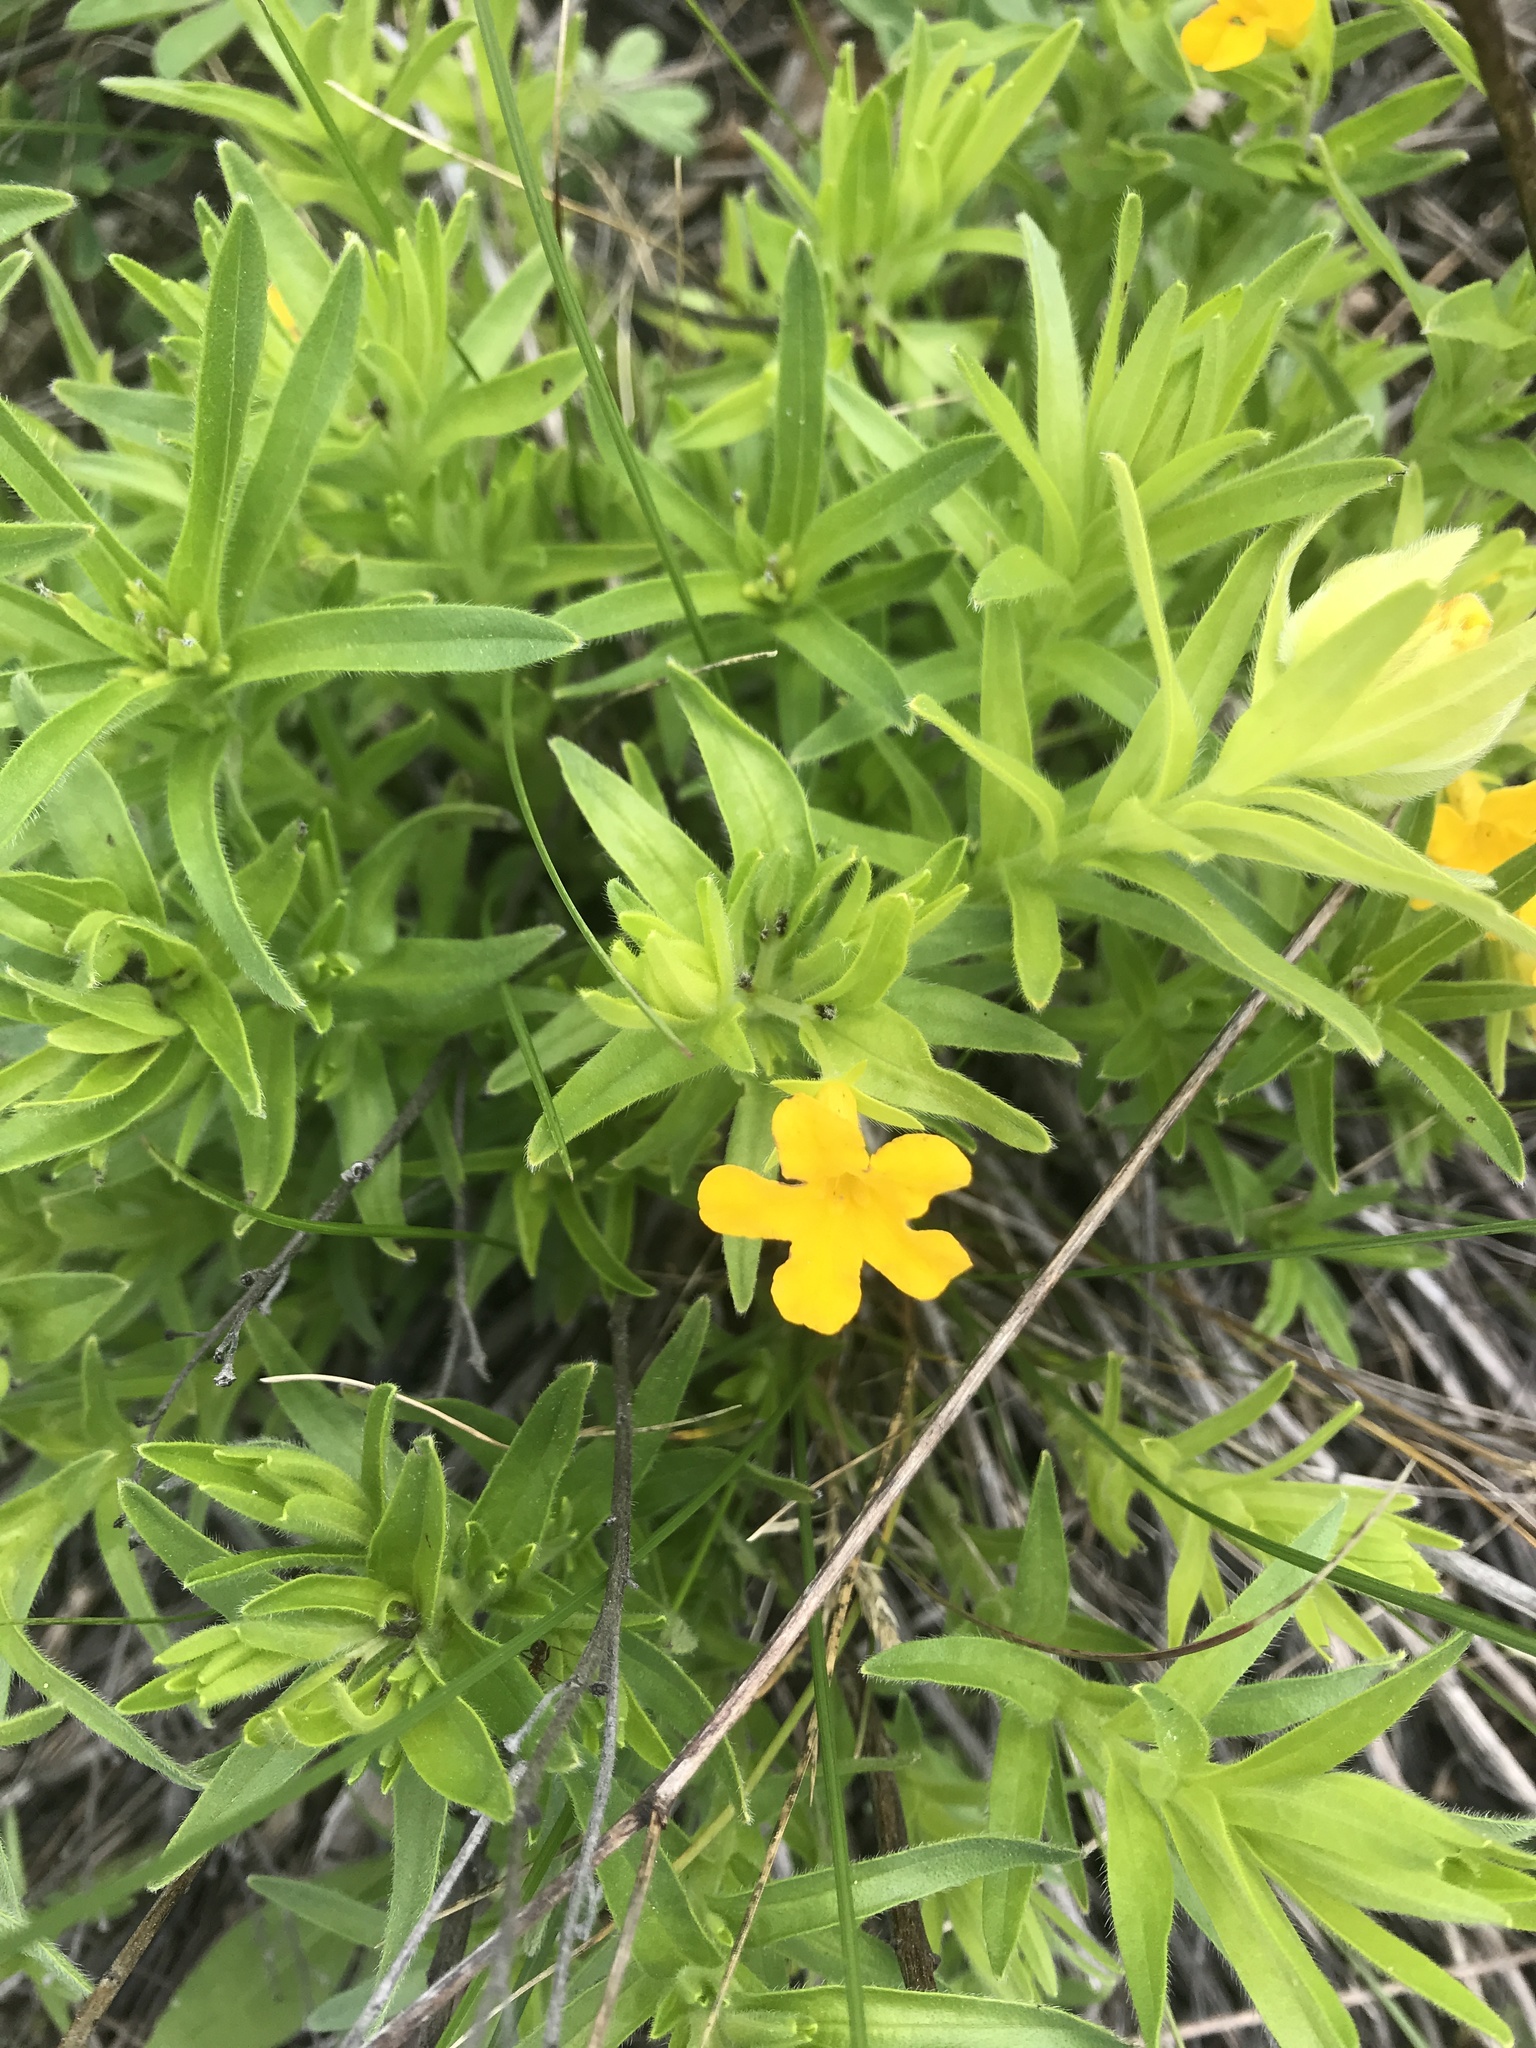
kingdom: Plantae
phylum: Tracheophyta
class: Magnoliopsida
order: Boraginales
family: Boraginaceae
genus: Lithospermum
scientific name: Lithospermum caroliniense
